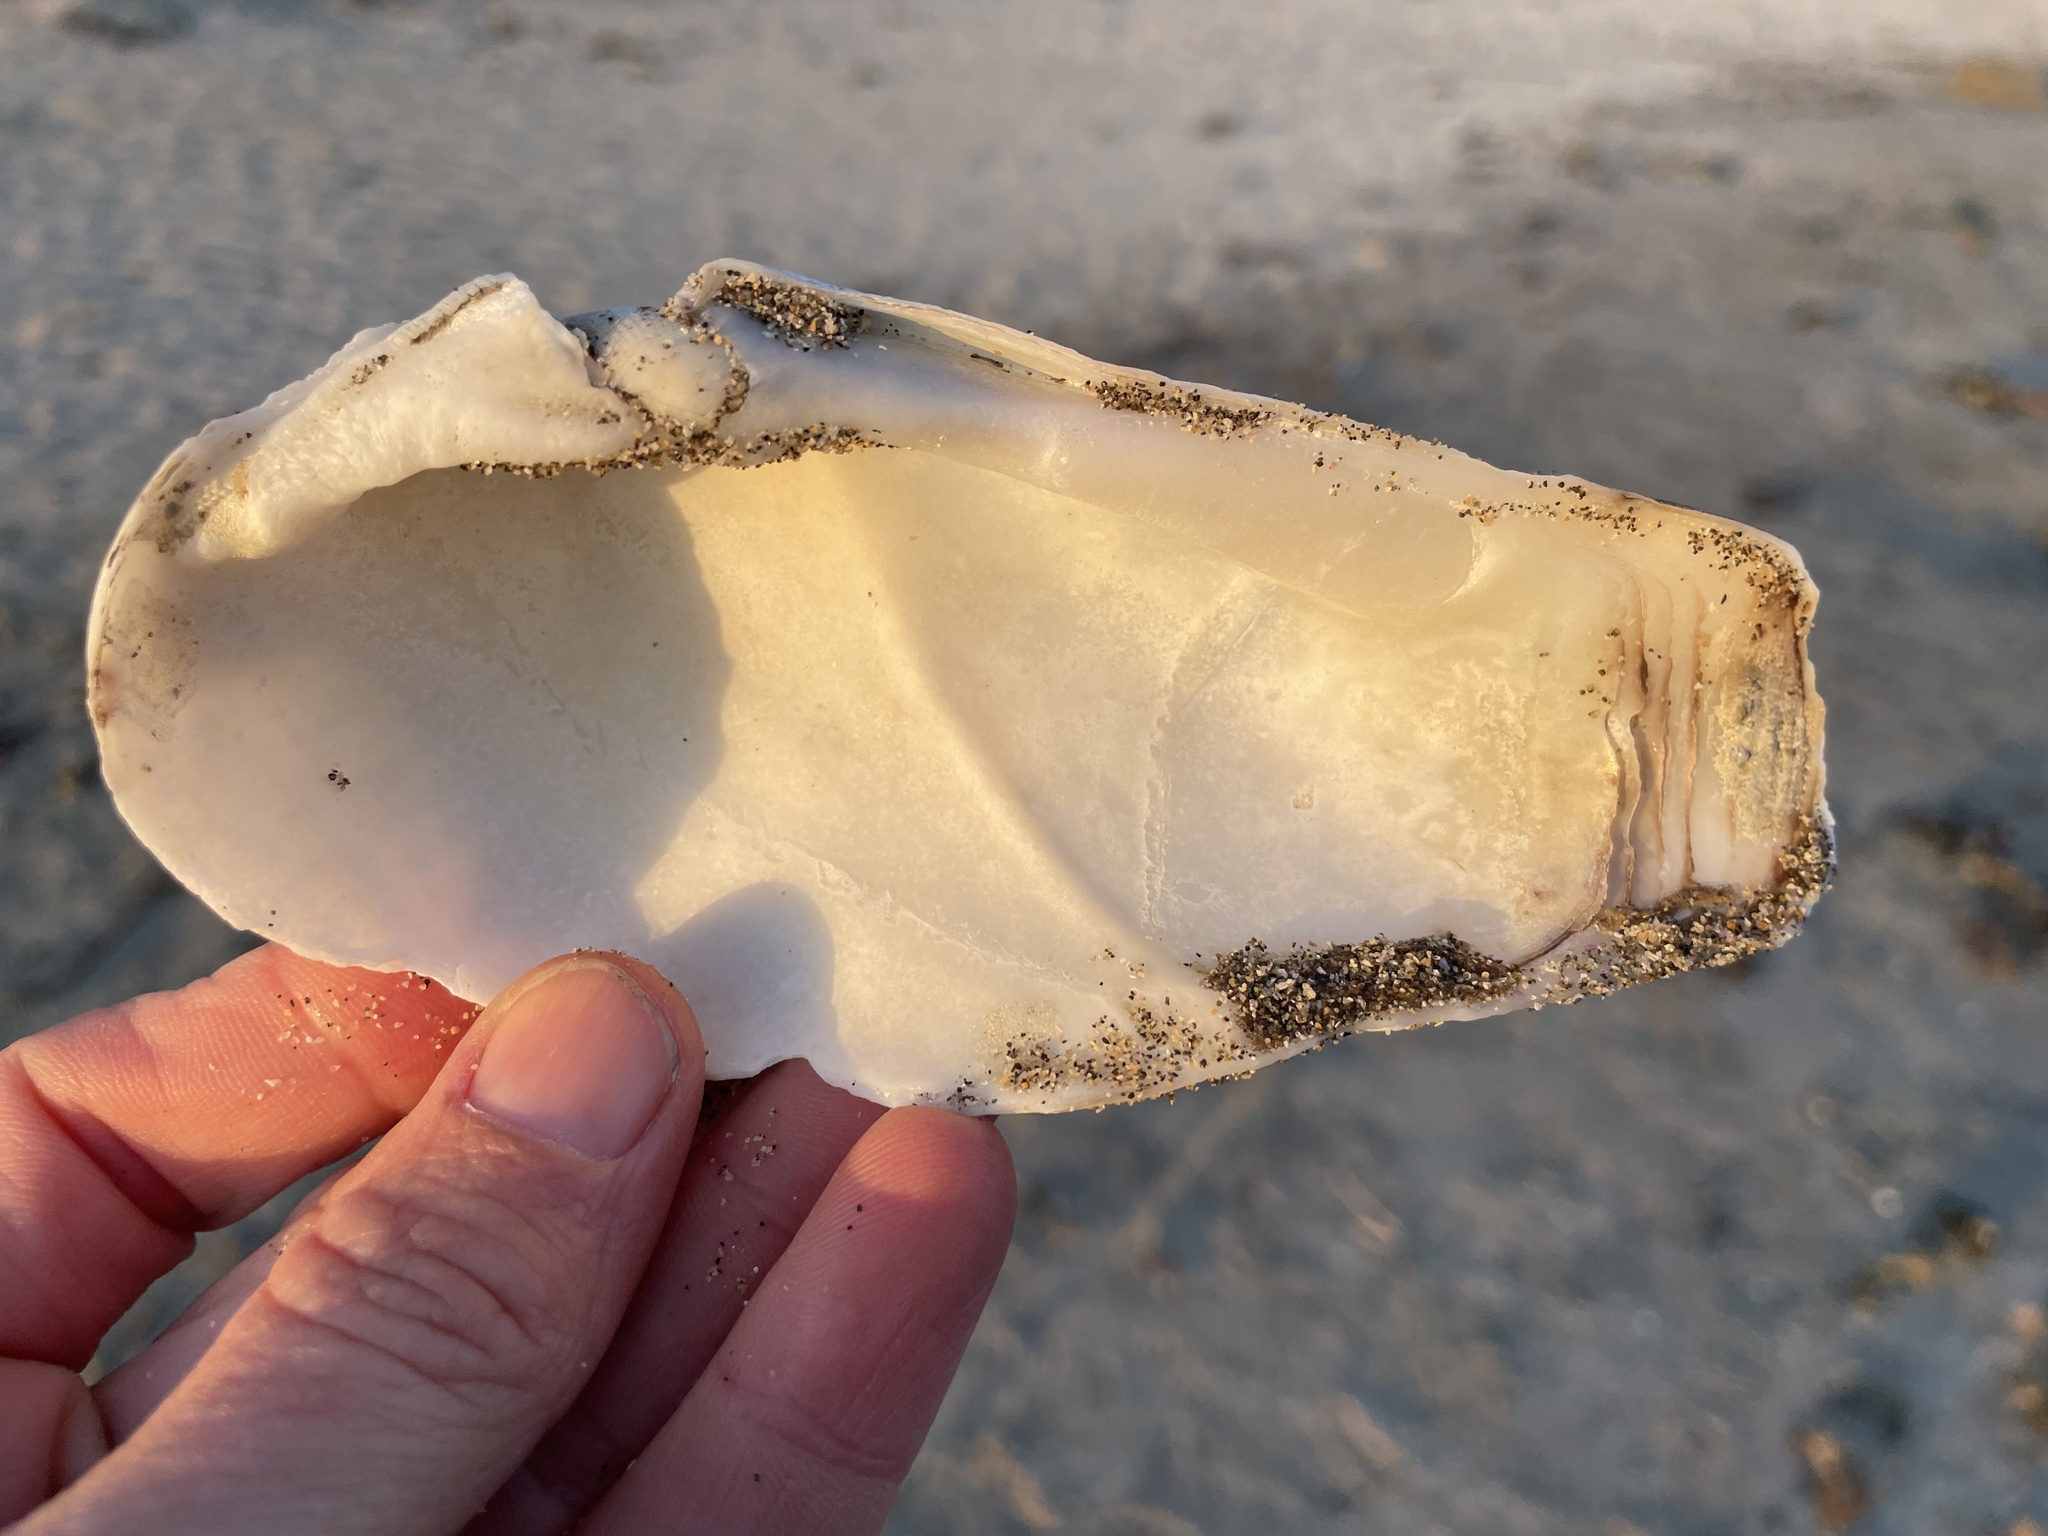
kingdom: Animalia
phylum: Mollusca
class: Bivalvia
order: Myida
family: Pholadidae
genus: Parapholas
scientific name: Parapholas californica
